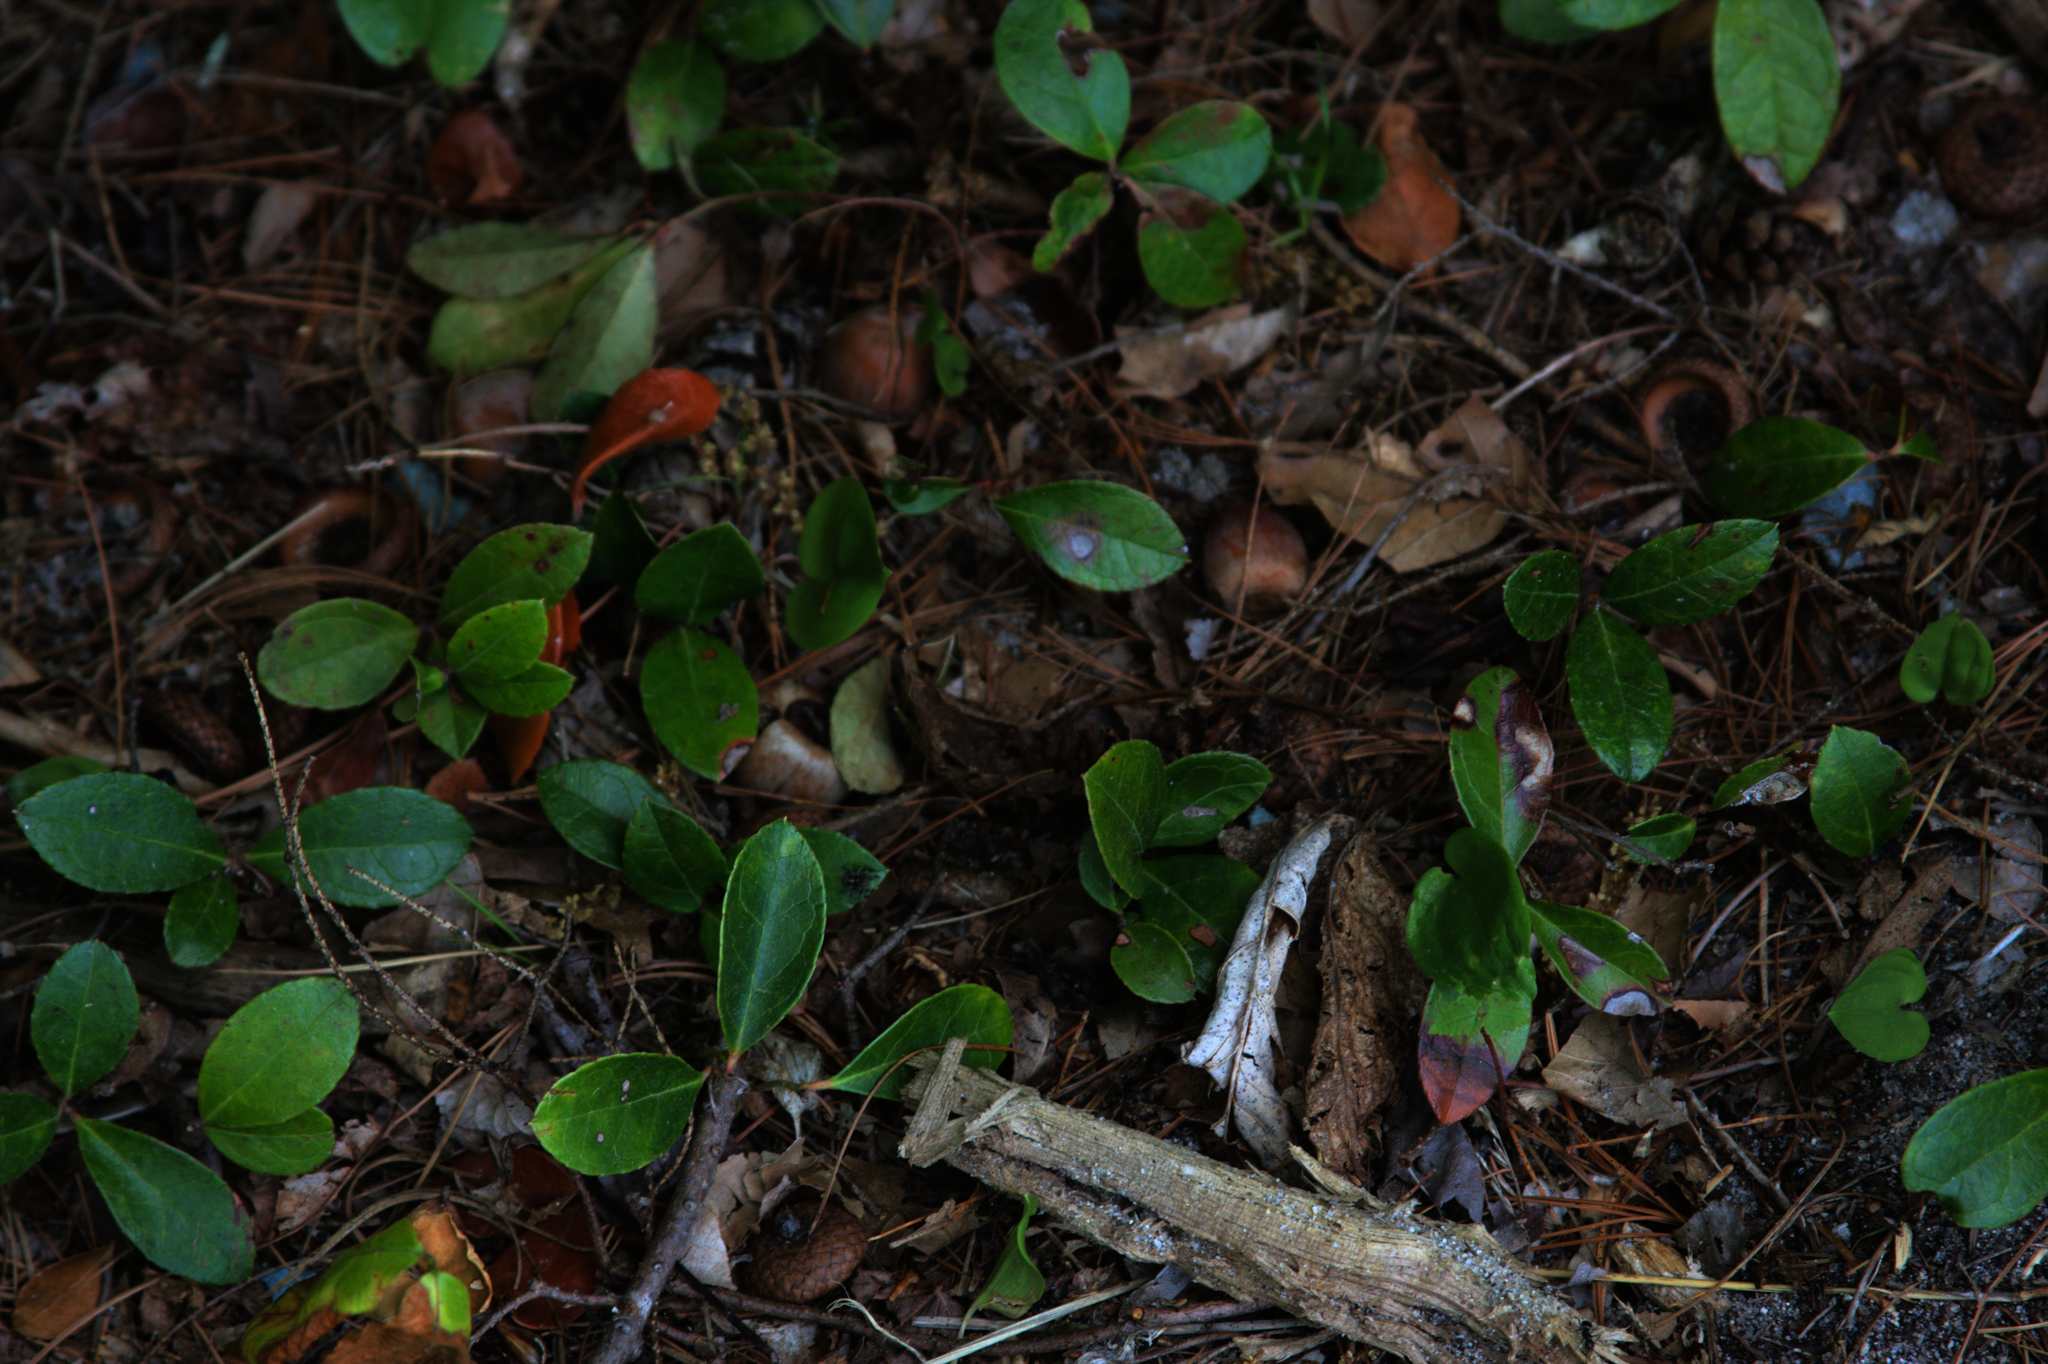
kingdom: Plantae
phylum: Tracheophyta
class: Magnoliopsida
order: Ericales
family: Ericaceae
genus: Gaultheria
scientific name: Gaultheria procumbens
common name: Checkerberry
